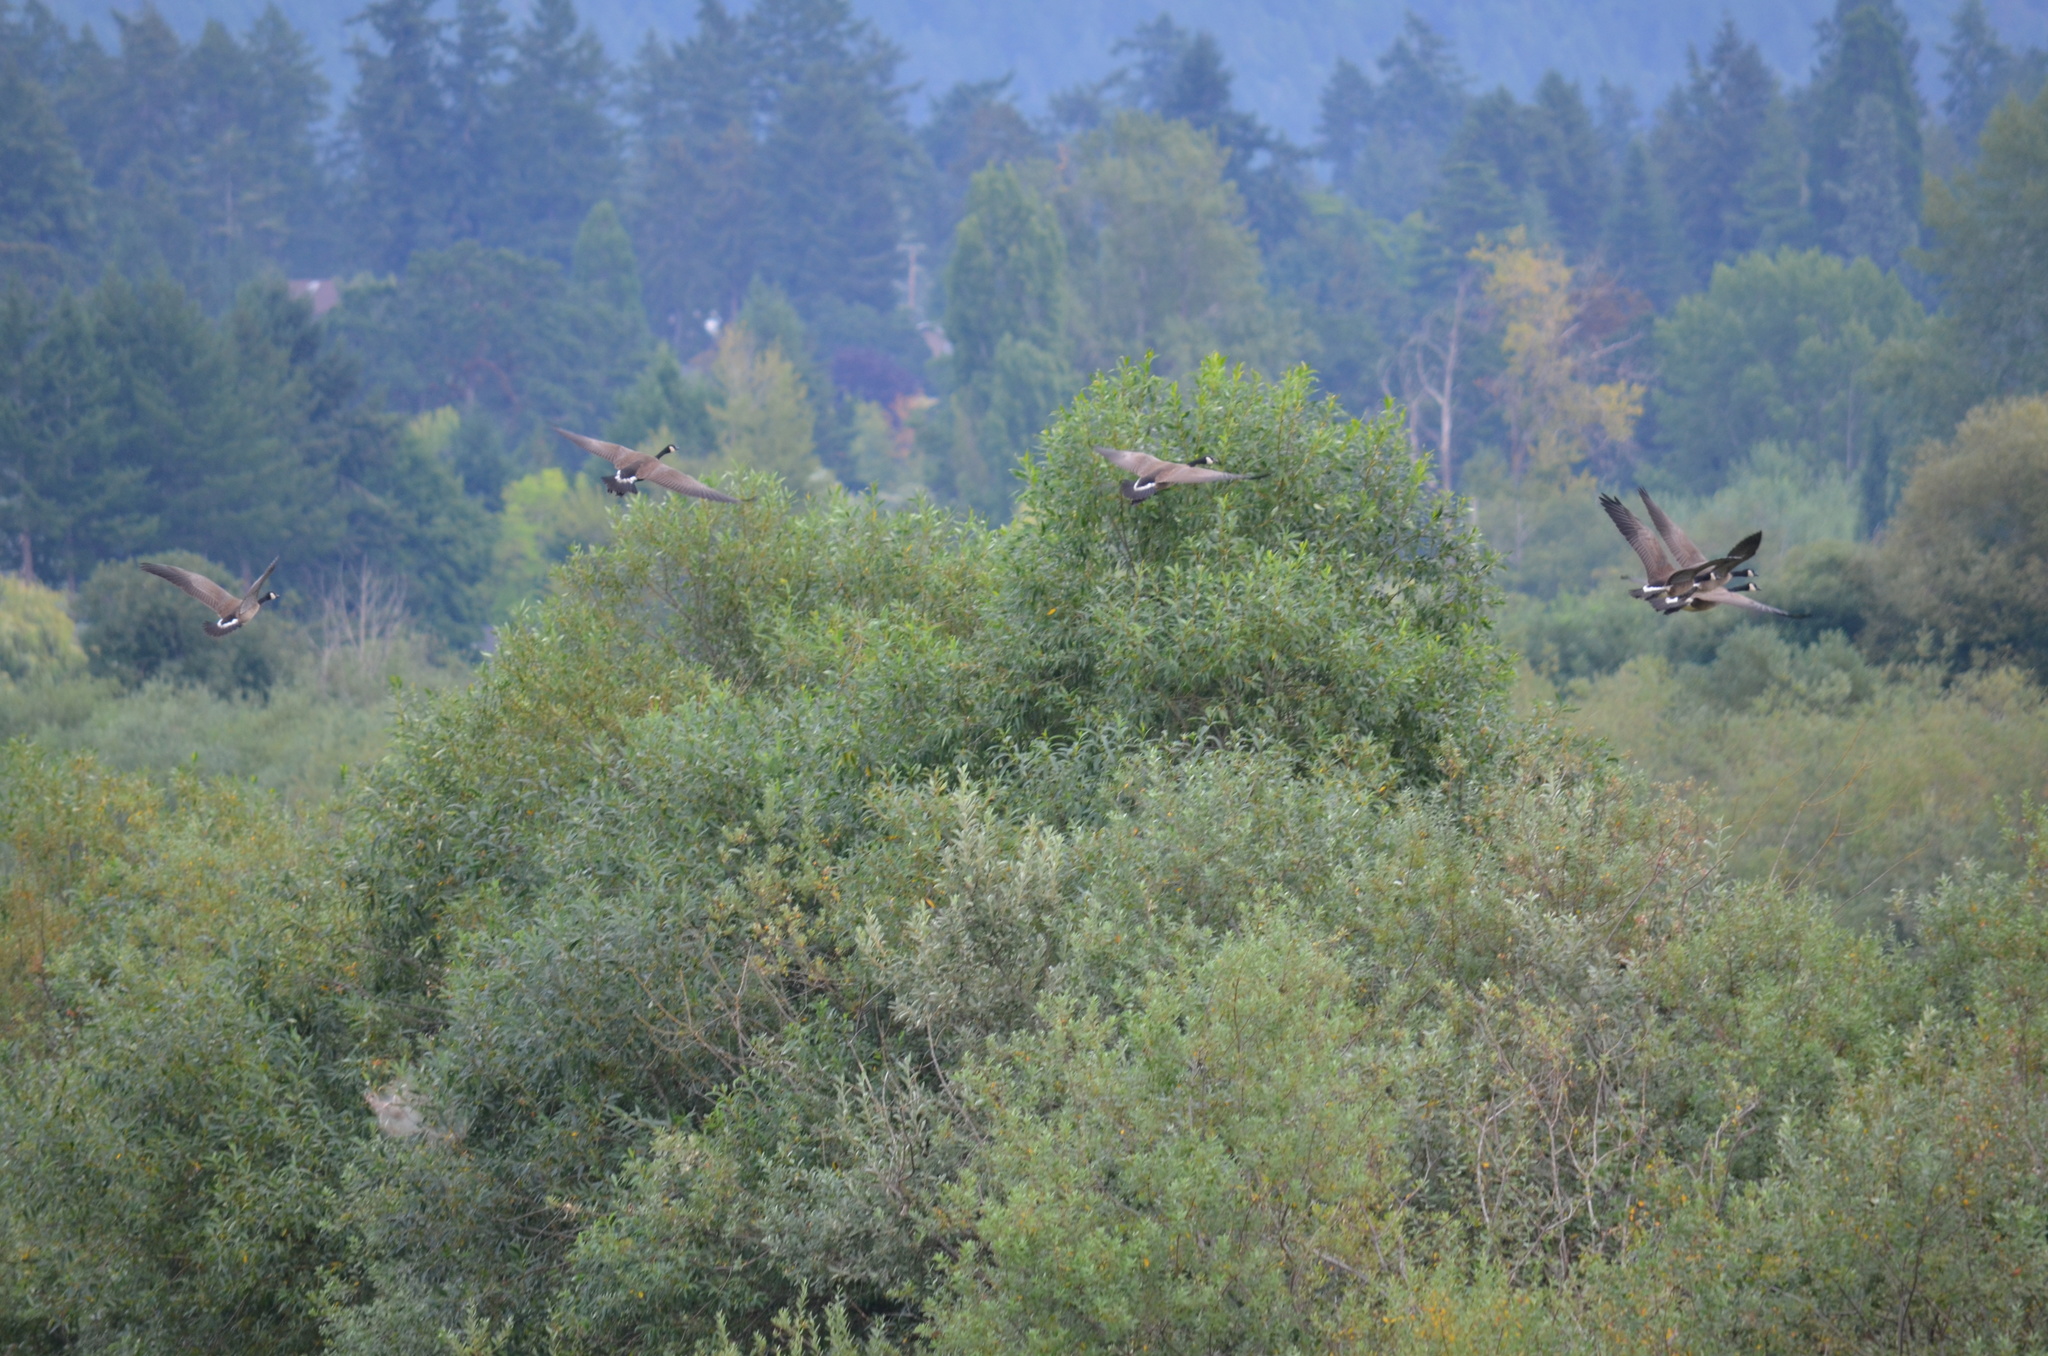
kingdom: Animalia
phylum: Chordata
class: Aves
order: Anseriformes
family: Anatidae
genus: Branta
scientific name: Branta canadensis
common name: Canada goose
